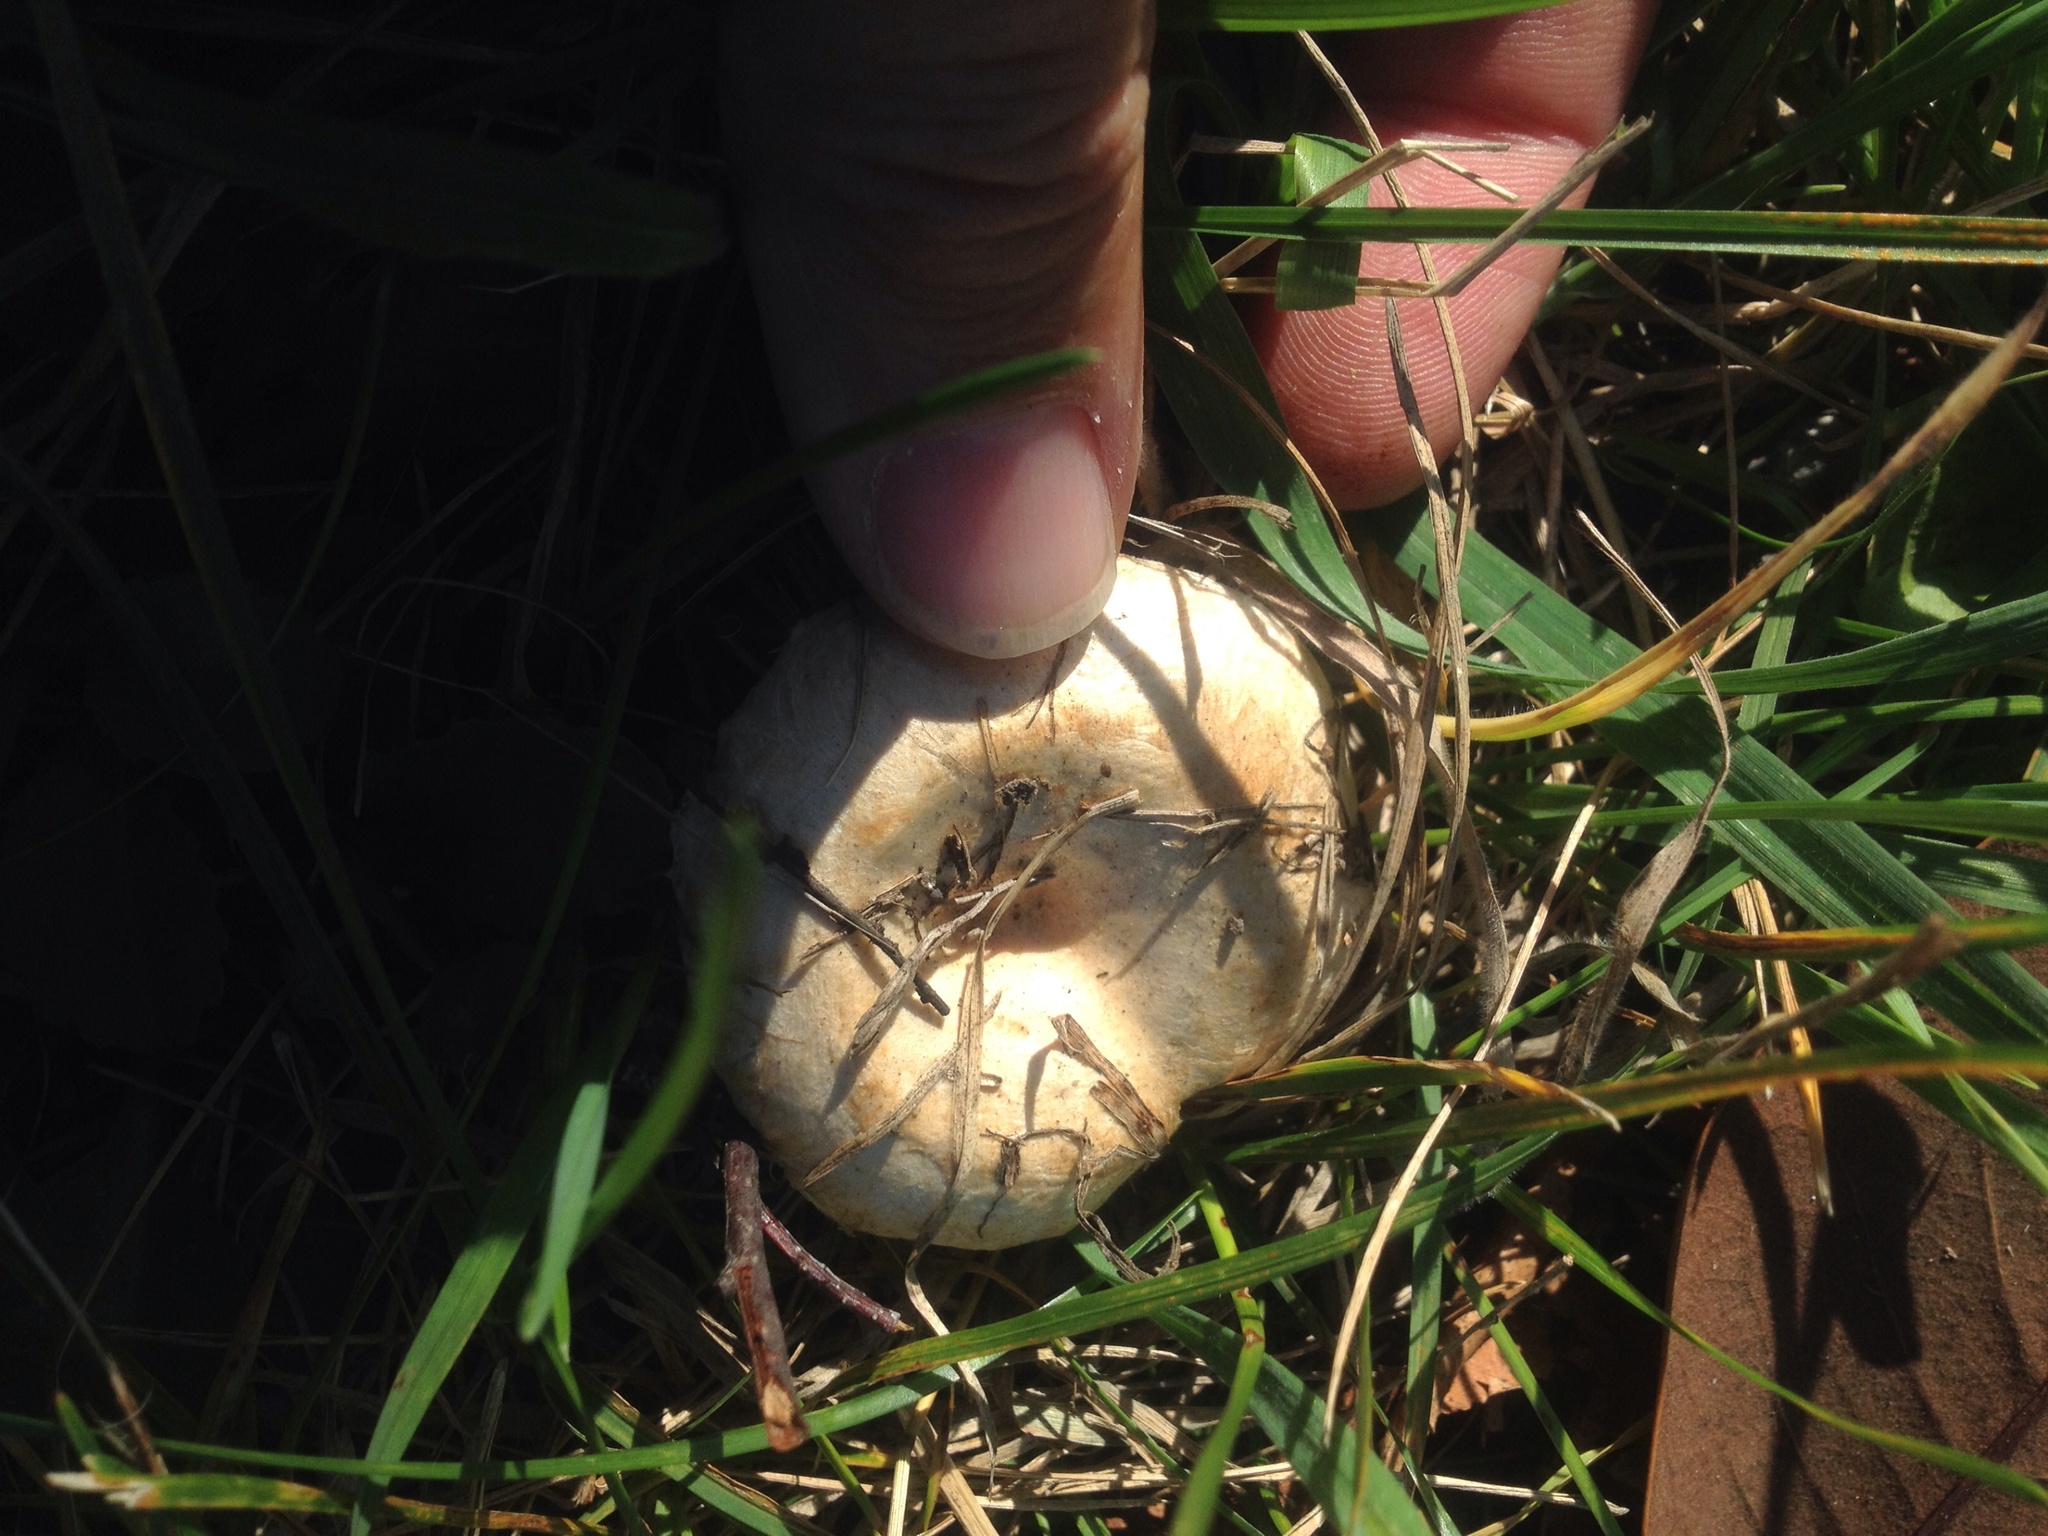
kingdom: Fungi
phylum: Basidiomycota
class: Agaricomycetes
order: Russulales
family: Russulaceae
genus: Lactarius
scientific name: Lactarius pubescens
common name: Bearded milkcap
